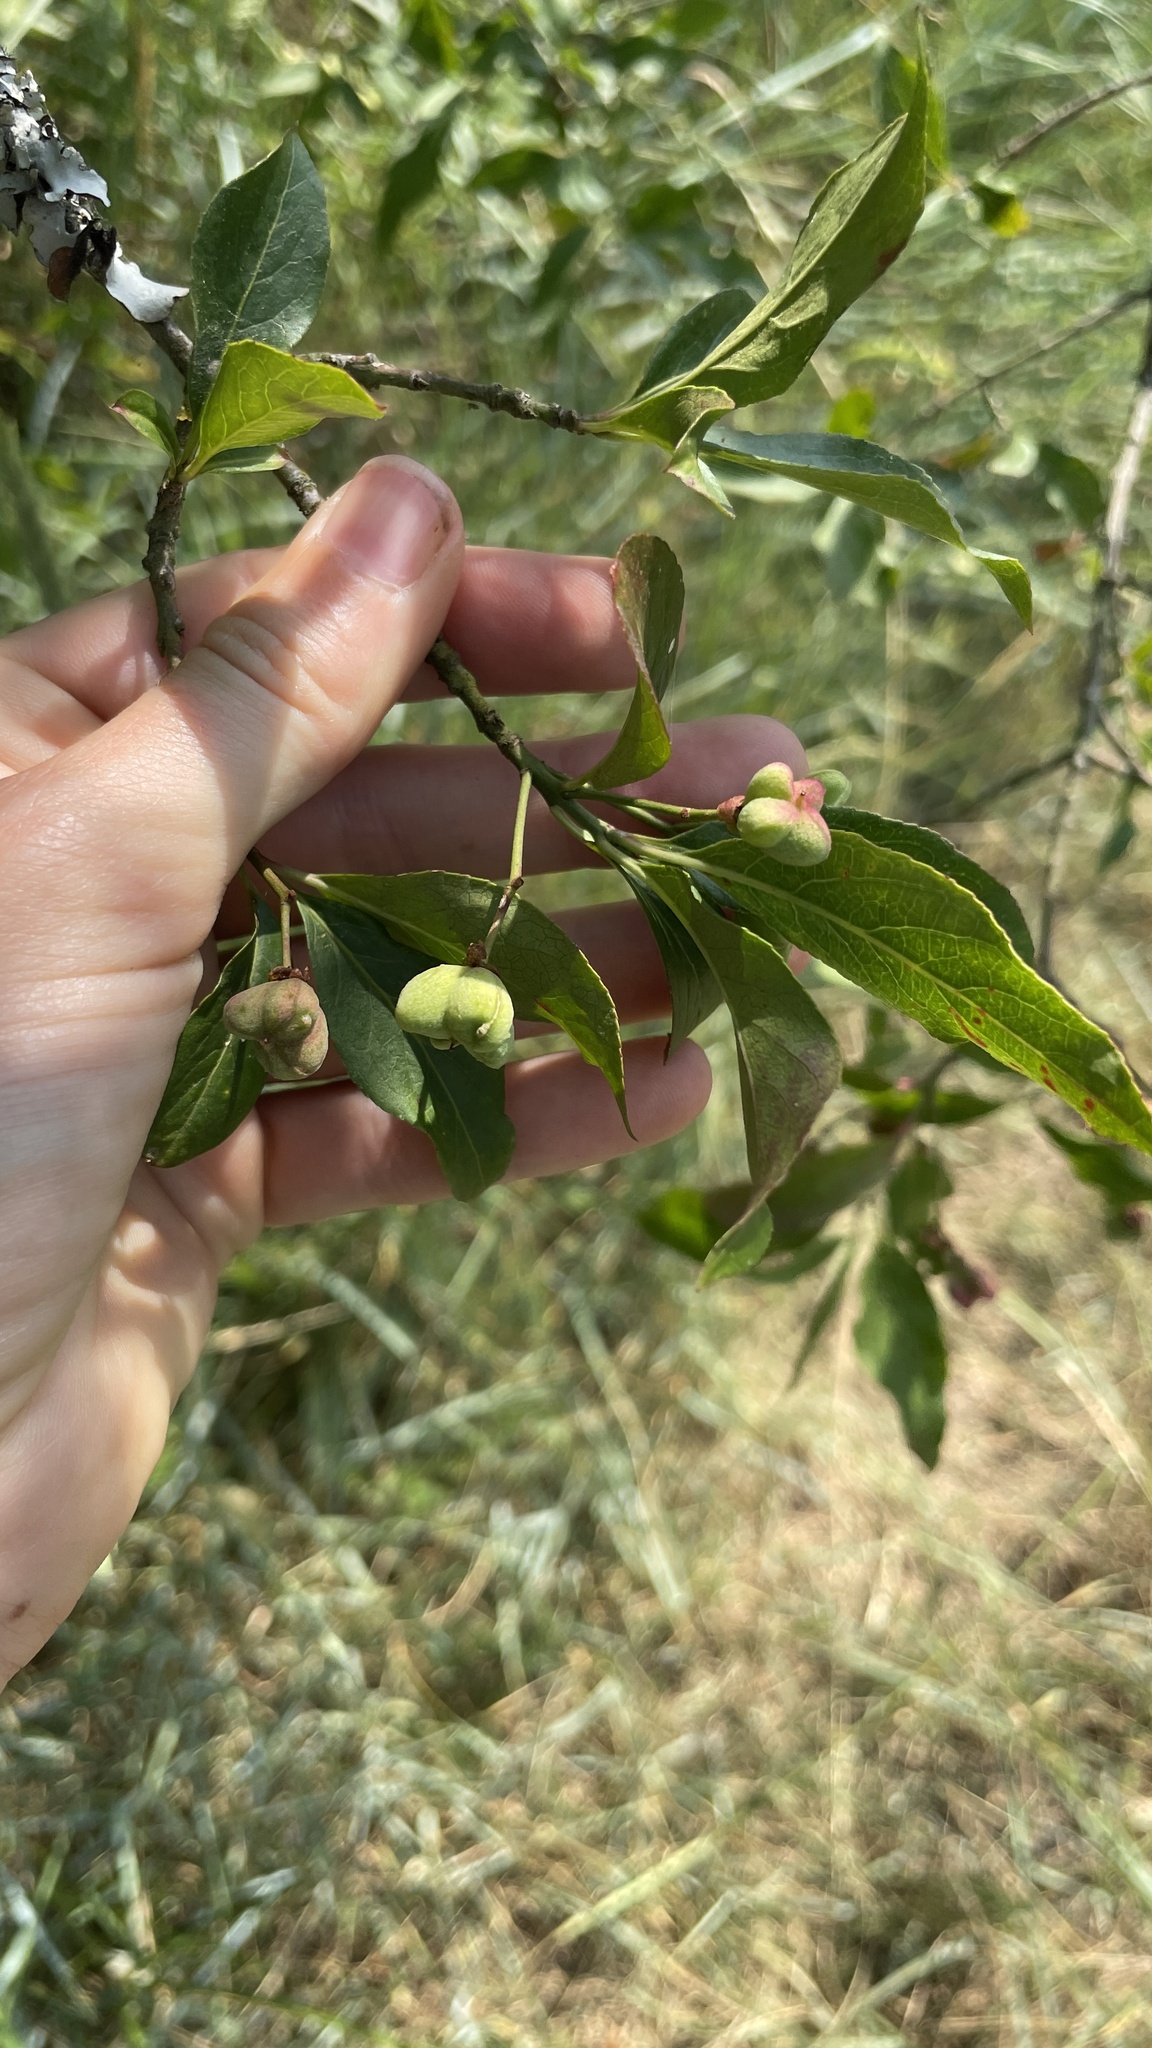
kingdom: Plantae
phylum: Tracheophyta
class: Magnoliopsida
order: Celastrales
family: Celastraceae
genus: Euonymus
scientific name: Euonymus europaeus
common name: Spindle
